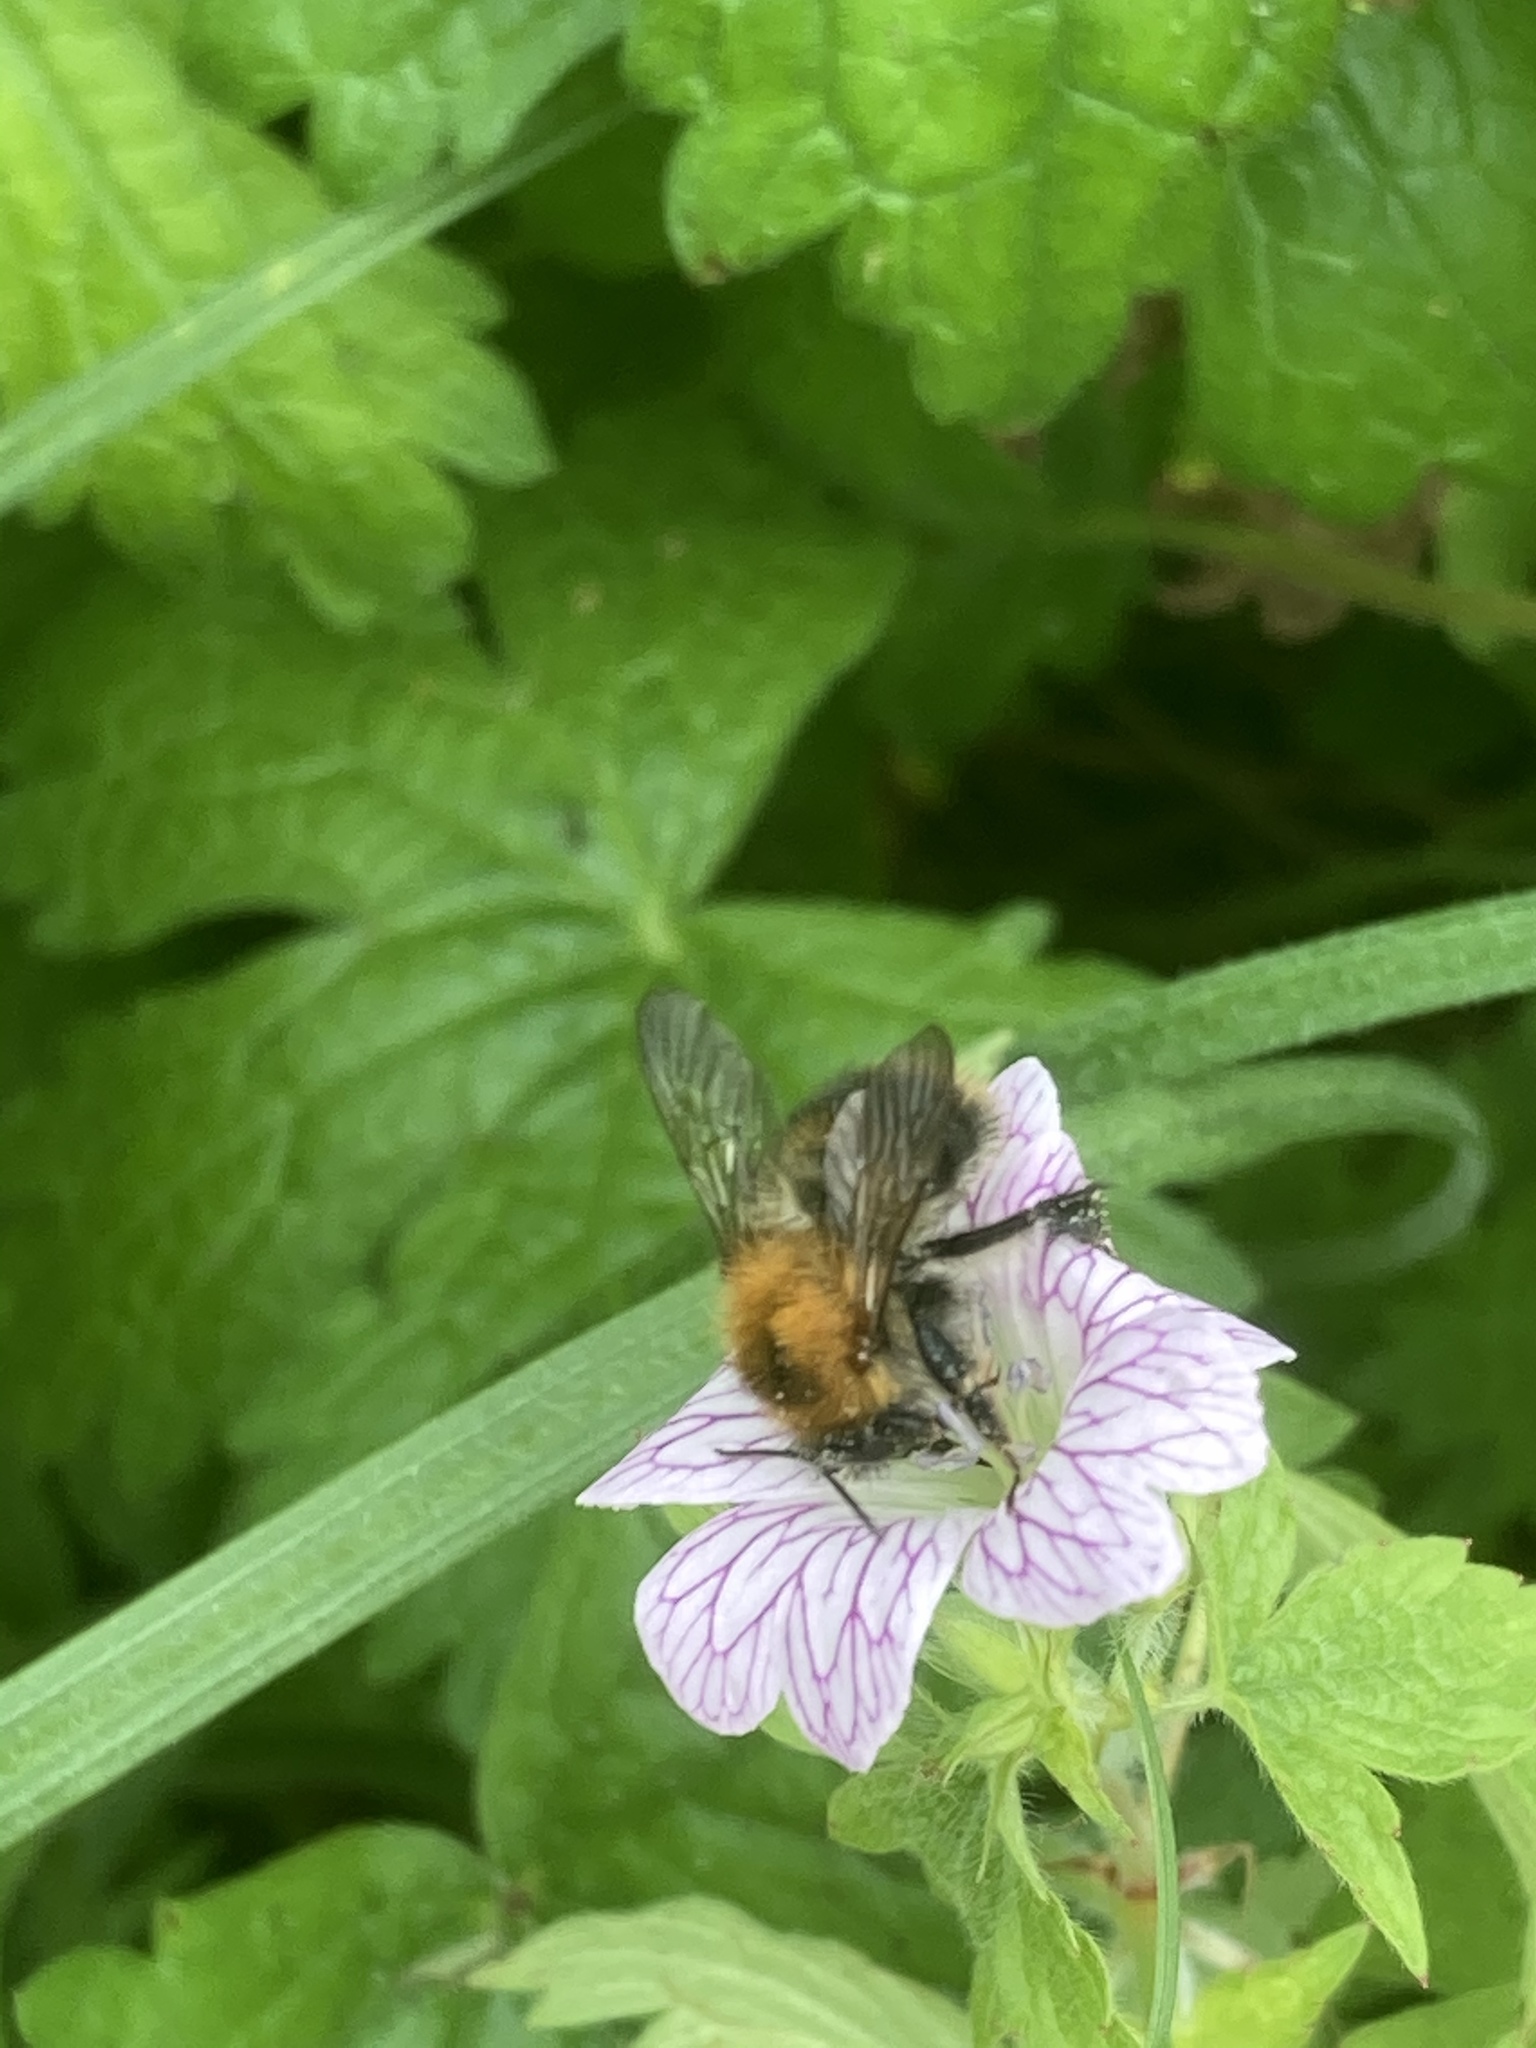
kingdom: Animalia
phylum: Arthropoda
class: Insecta
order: Hymenoptera
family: Apidae
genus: Bombus
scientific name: Bombus pascuorum
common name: Common carder bee
